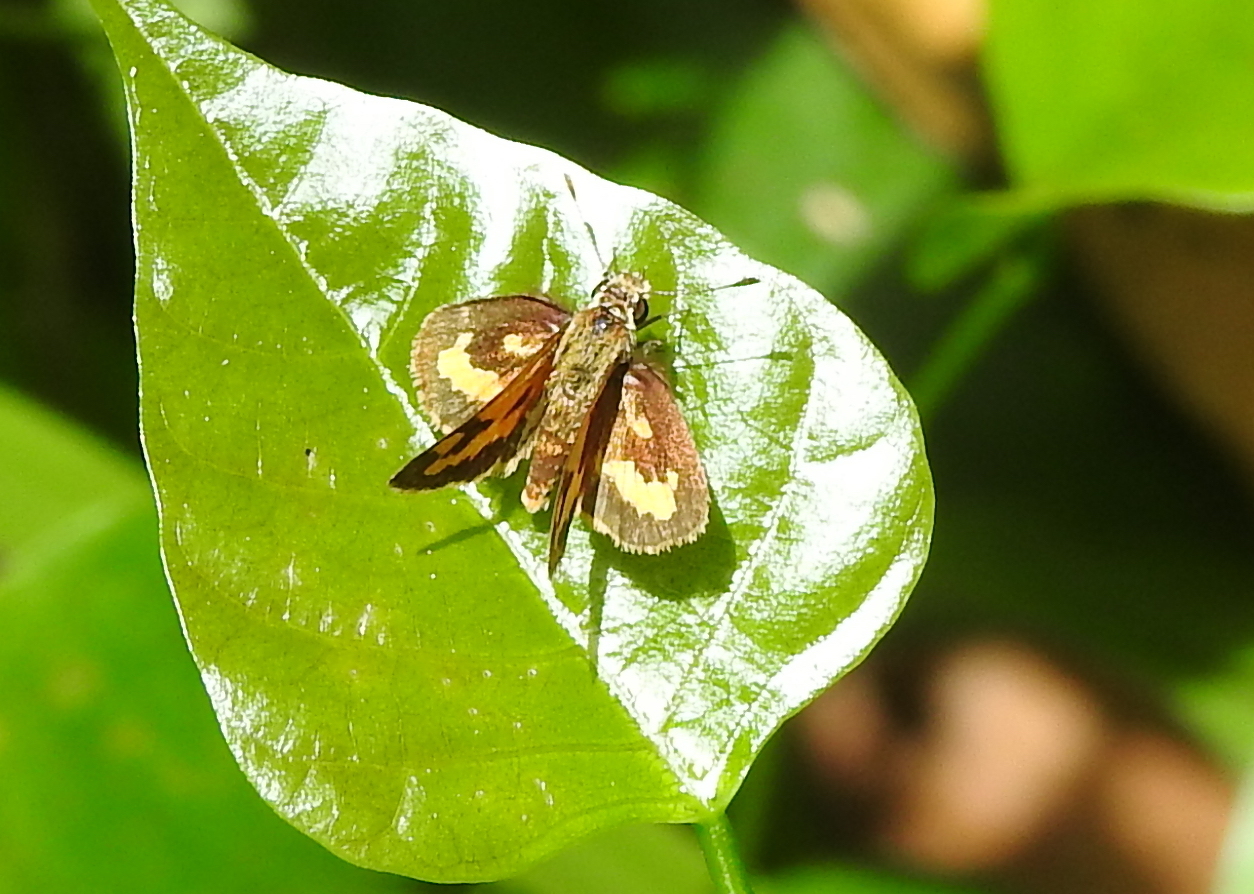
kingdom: Animalia
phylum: Arthropoda
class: Insecta
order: Lepidoptera
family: Hesperiidae
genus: Oriens
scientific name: Oriens gola
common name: Common dartlet
